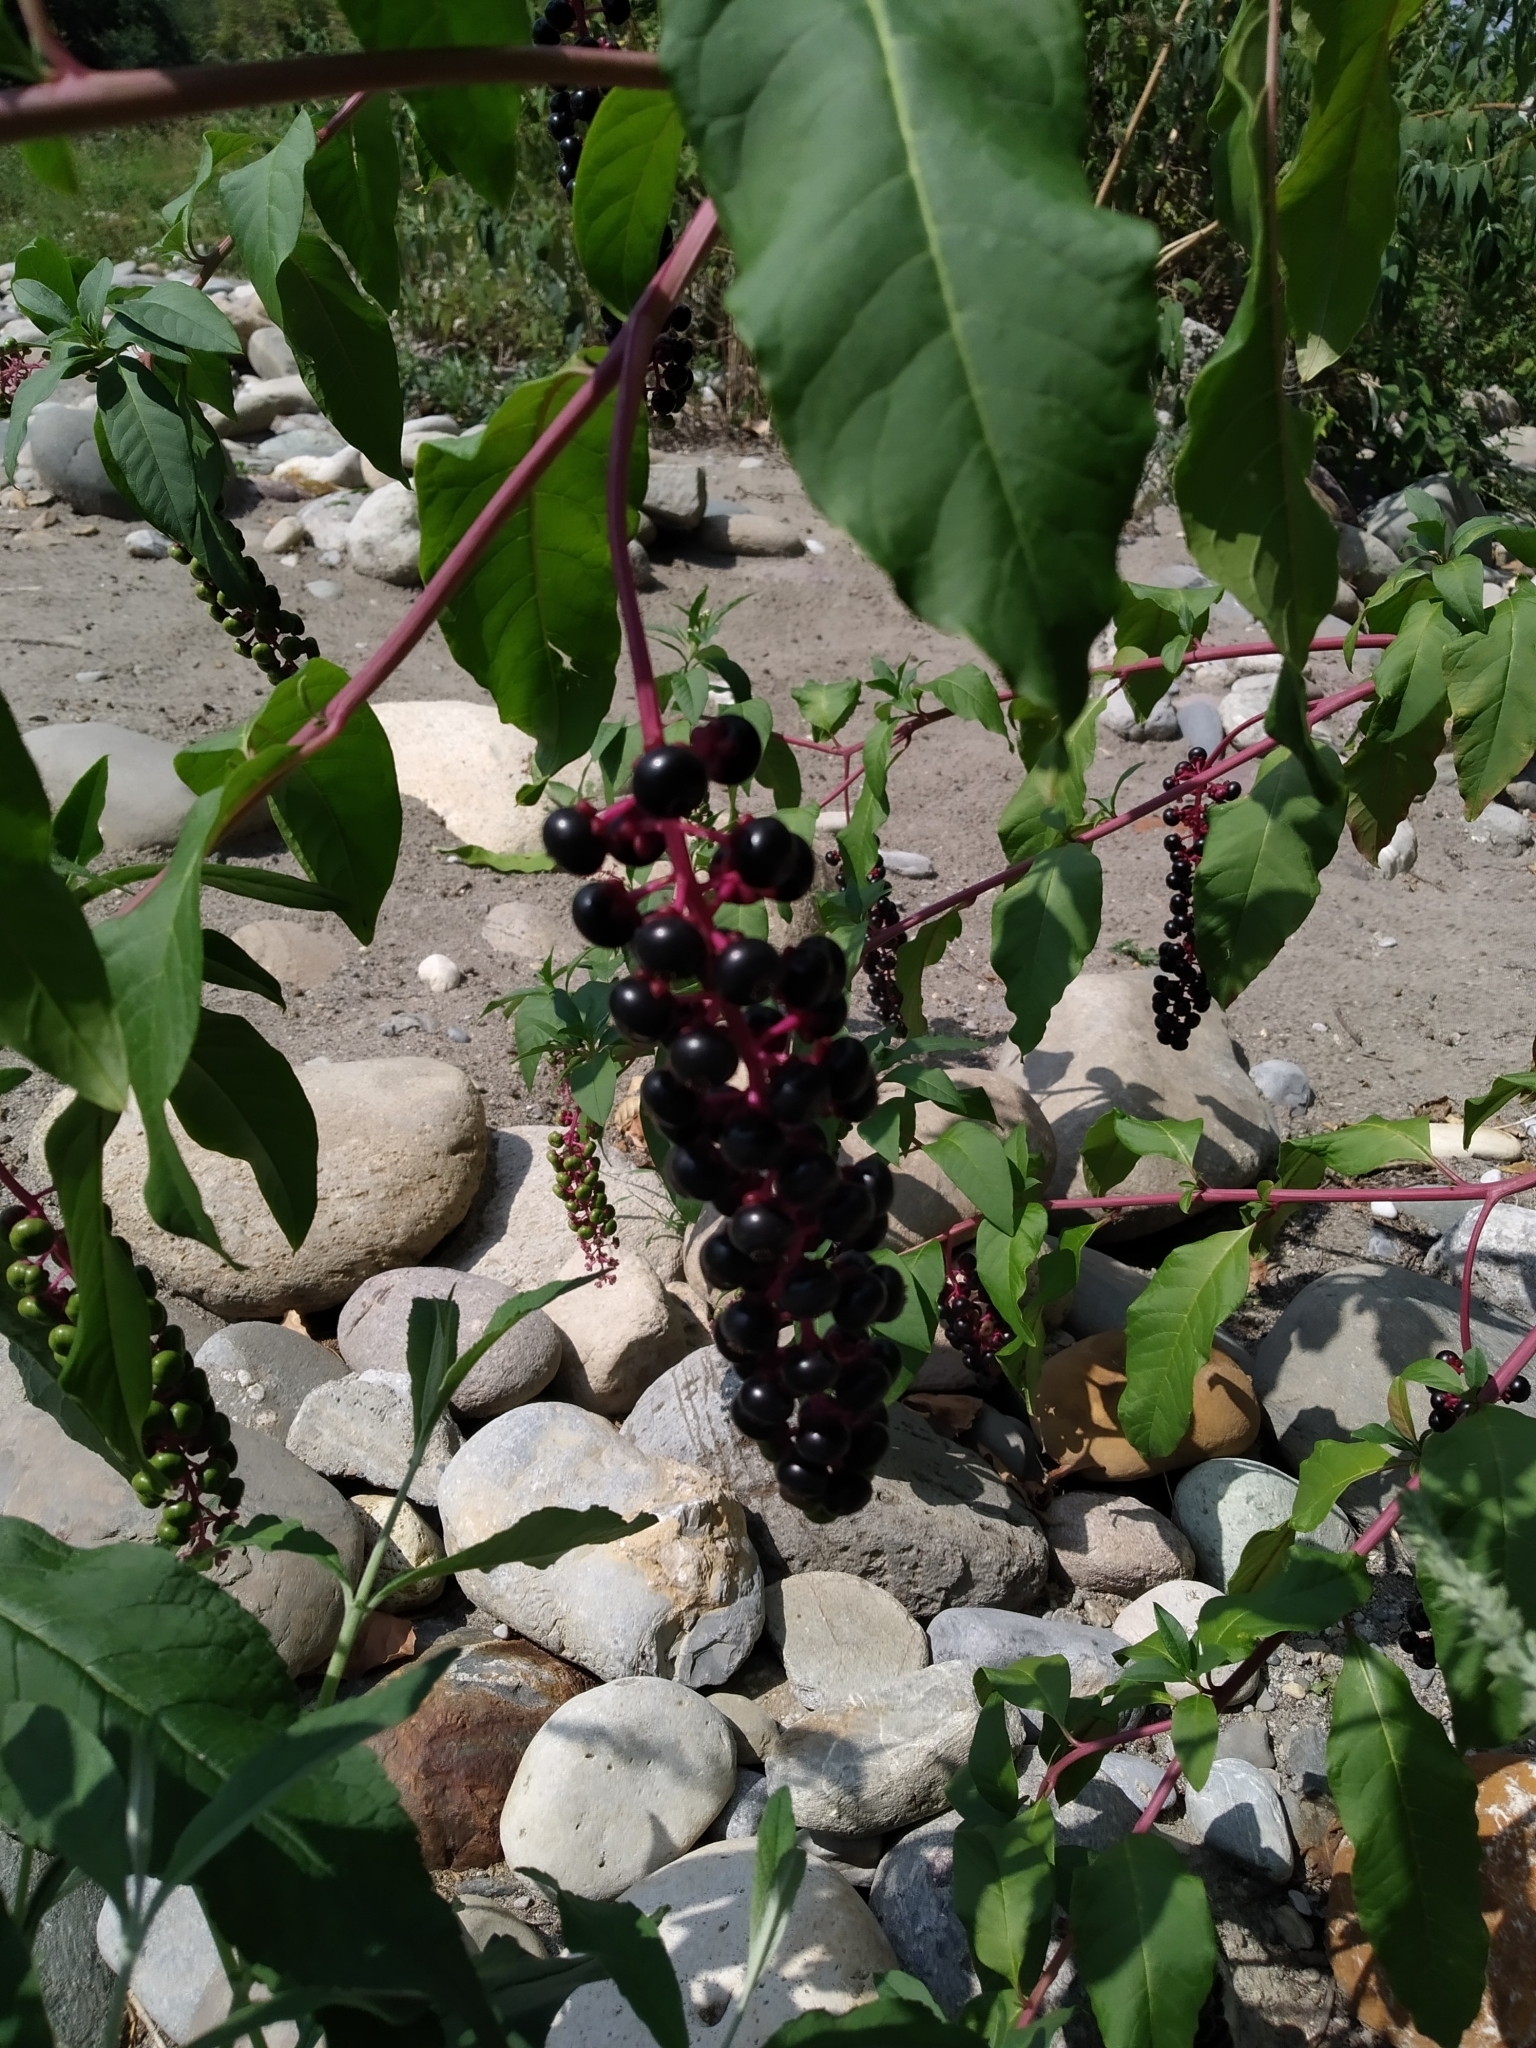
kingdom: Plantae
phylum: Tracheophyta
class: Magnoliopsida
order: Caryophyllales
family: Phytolaccaceae
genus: Phytolacca
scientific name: Phytolacca americana
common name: American pokeweed
